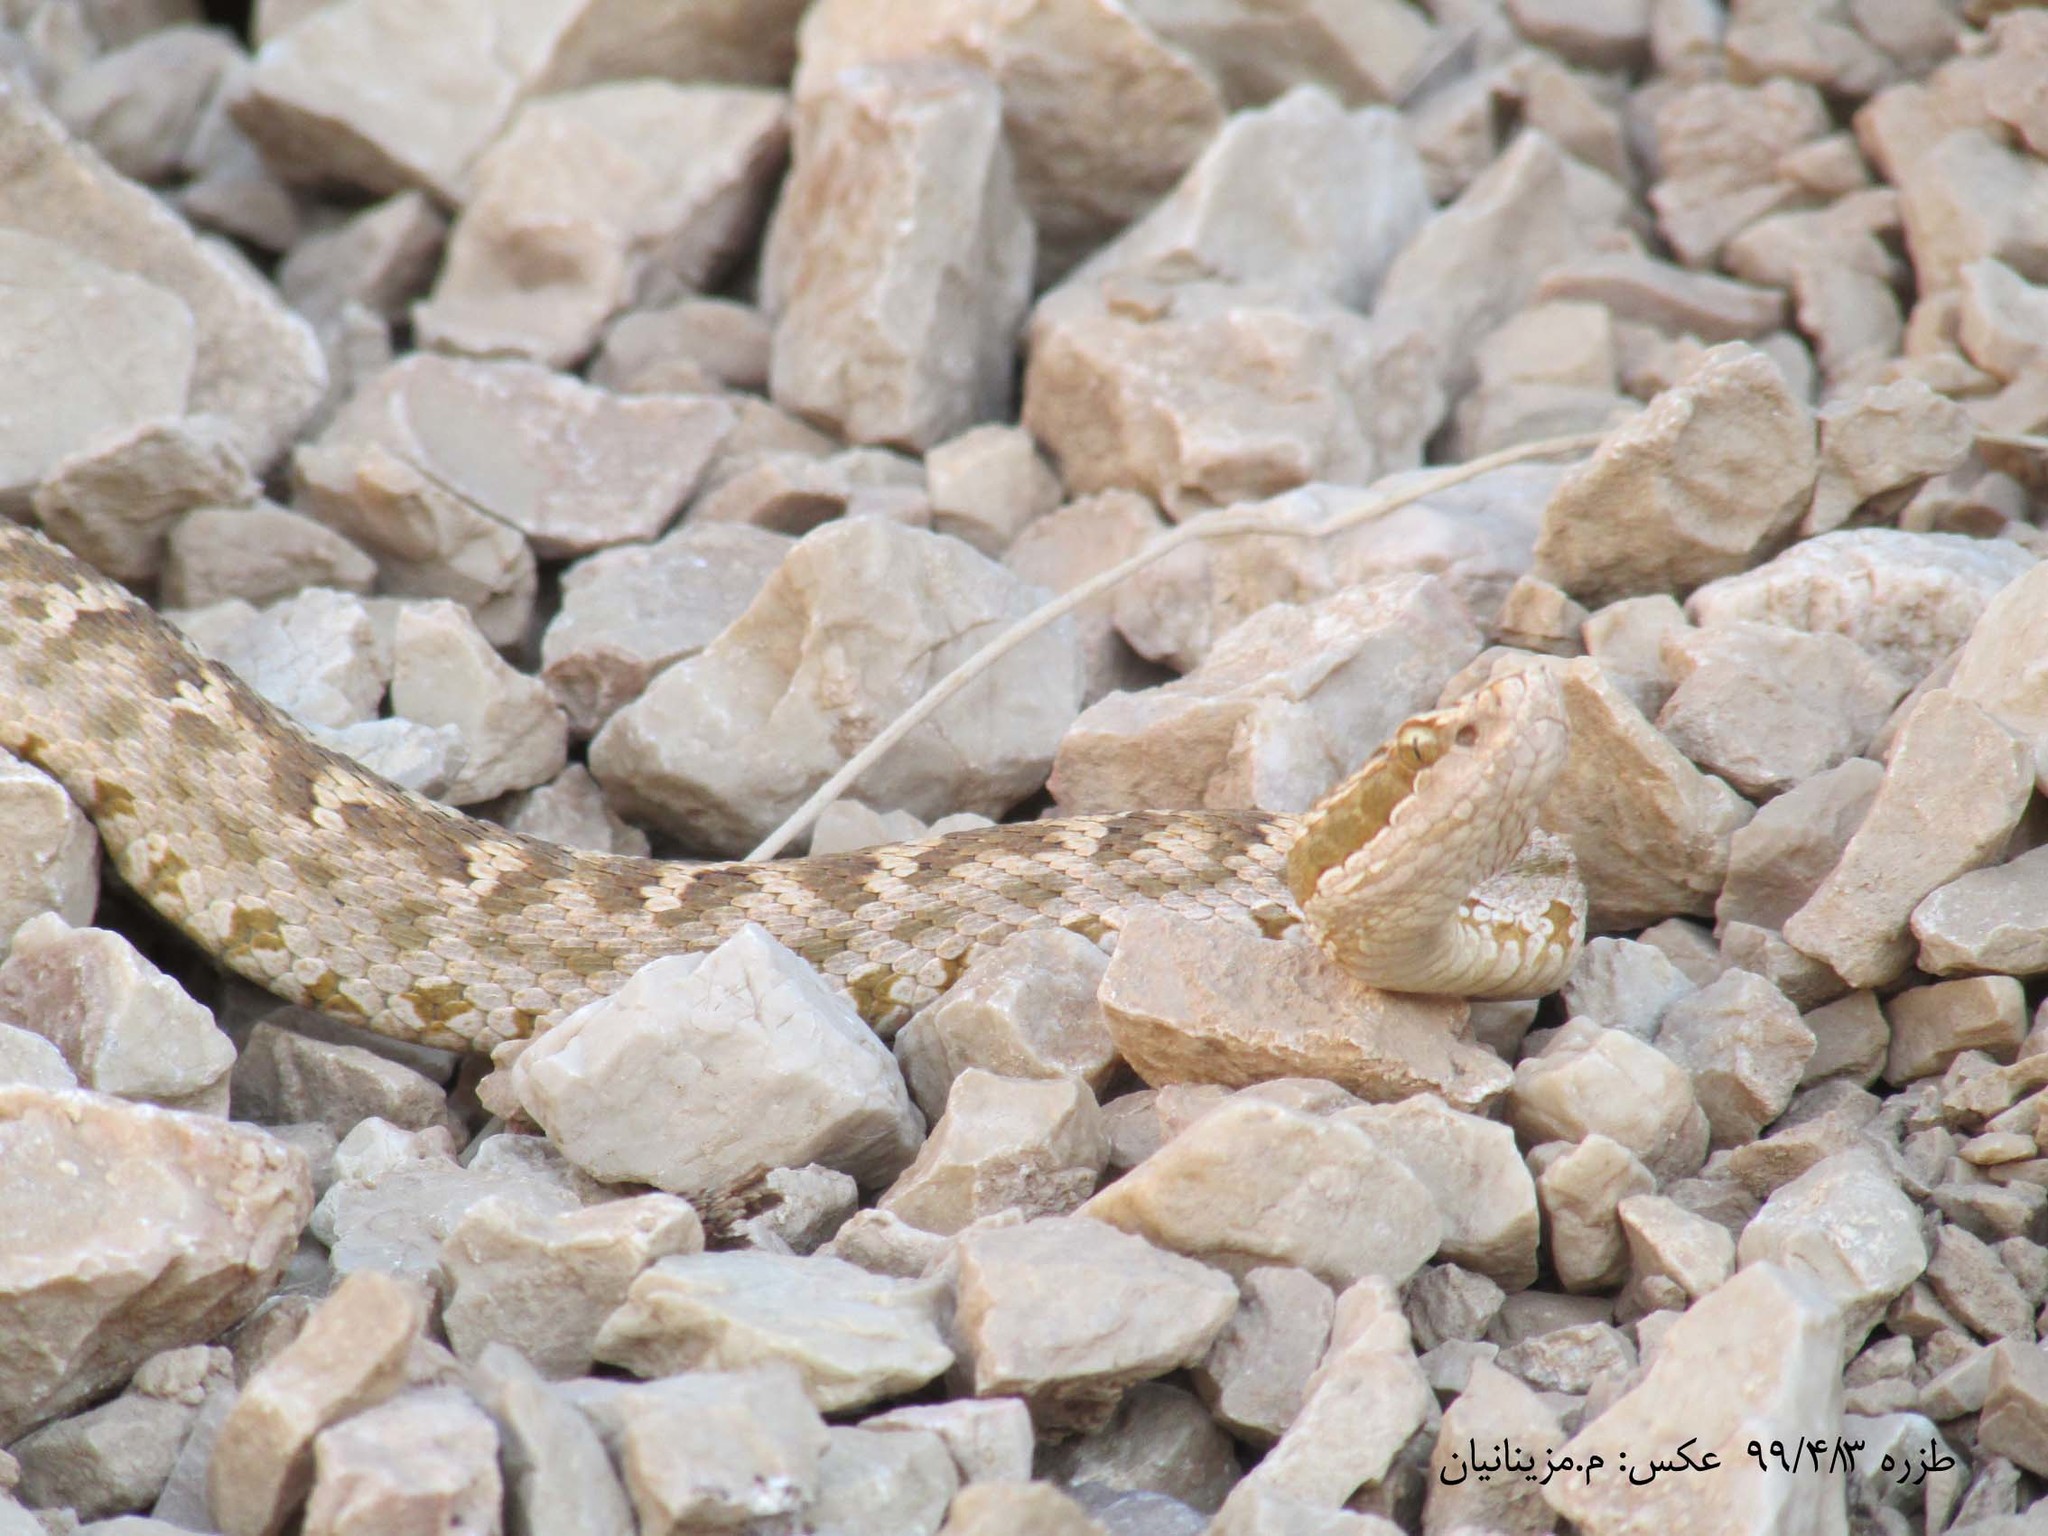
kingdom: Animalia
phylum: Chordata
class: Squamata
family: Viperidae
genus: Gloydius
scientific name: Gloydius caucasicus
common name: Caucasian pitviper
